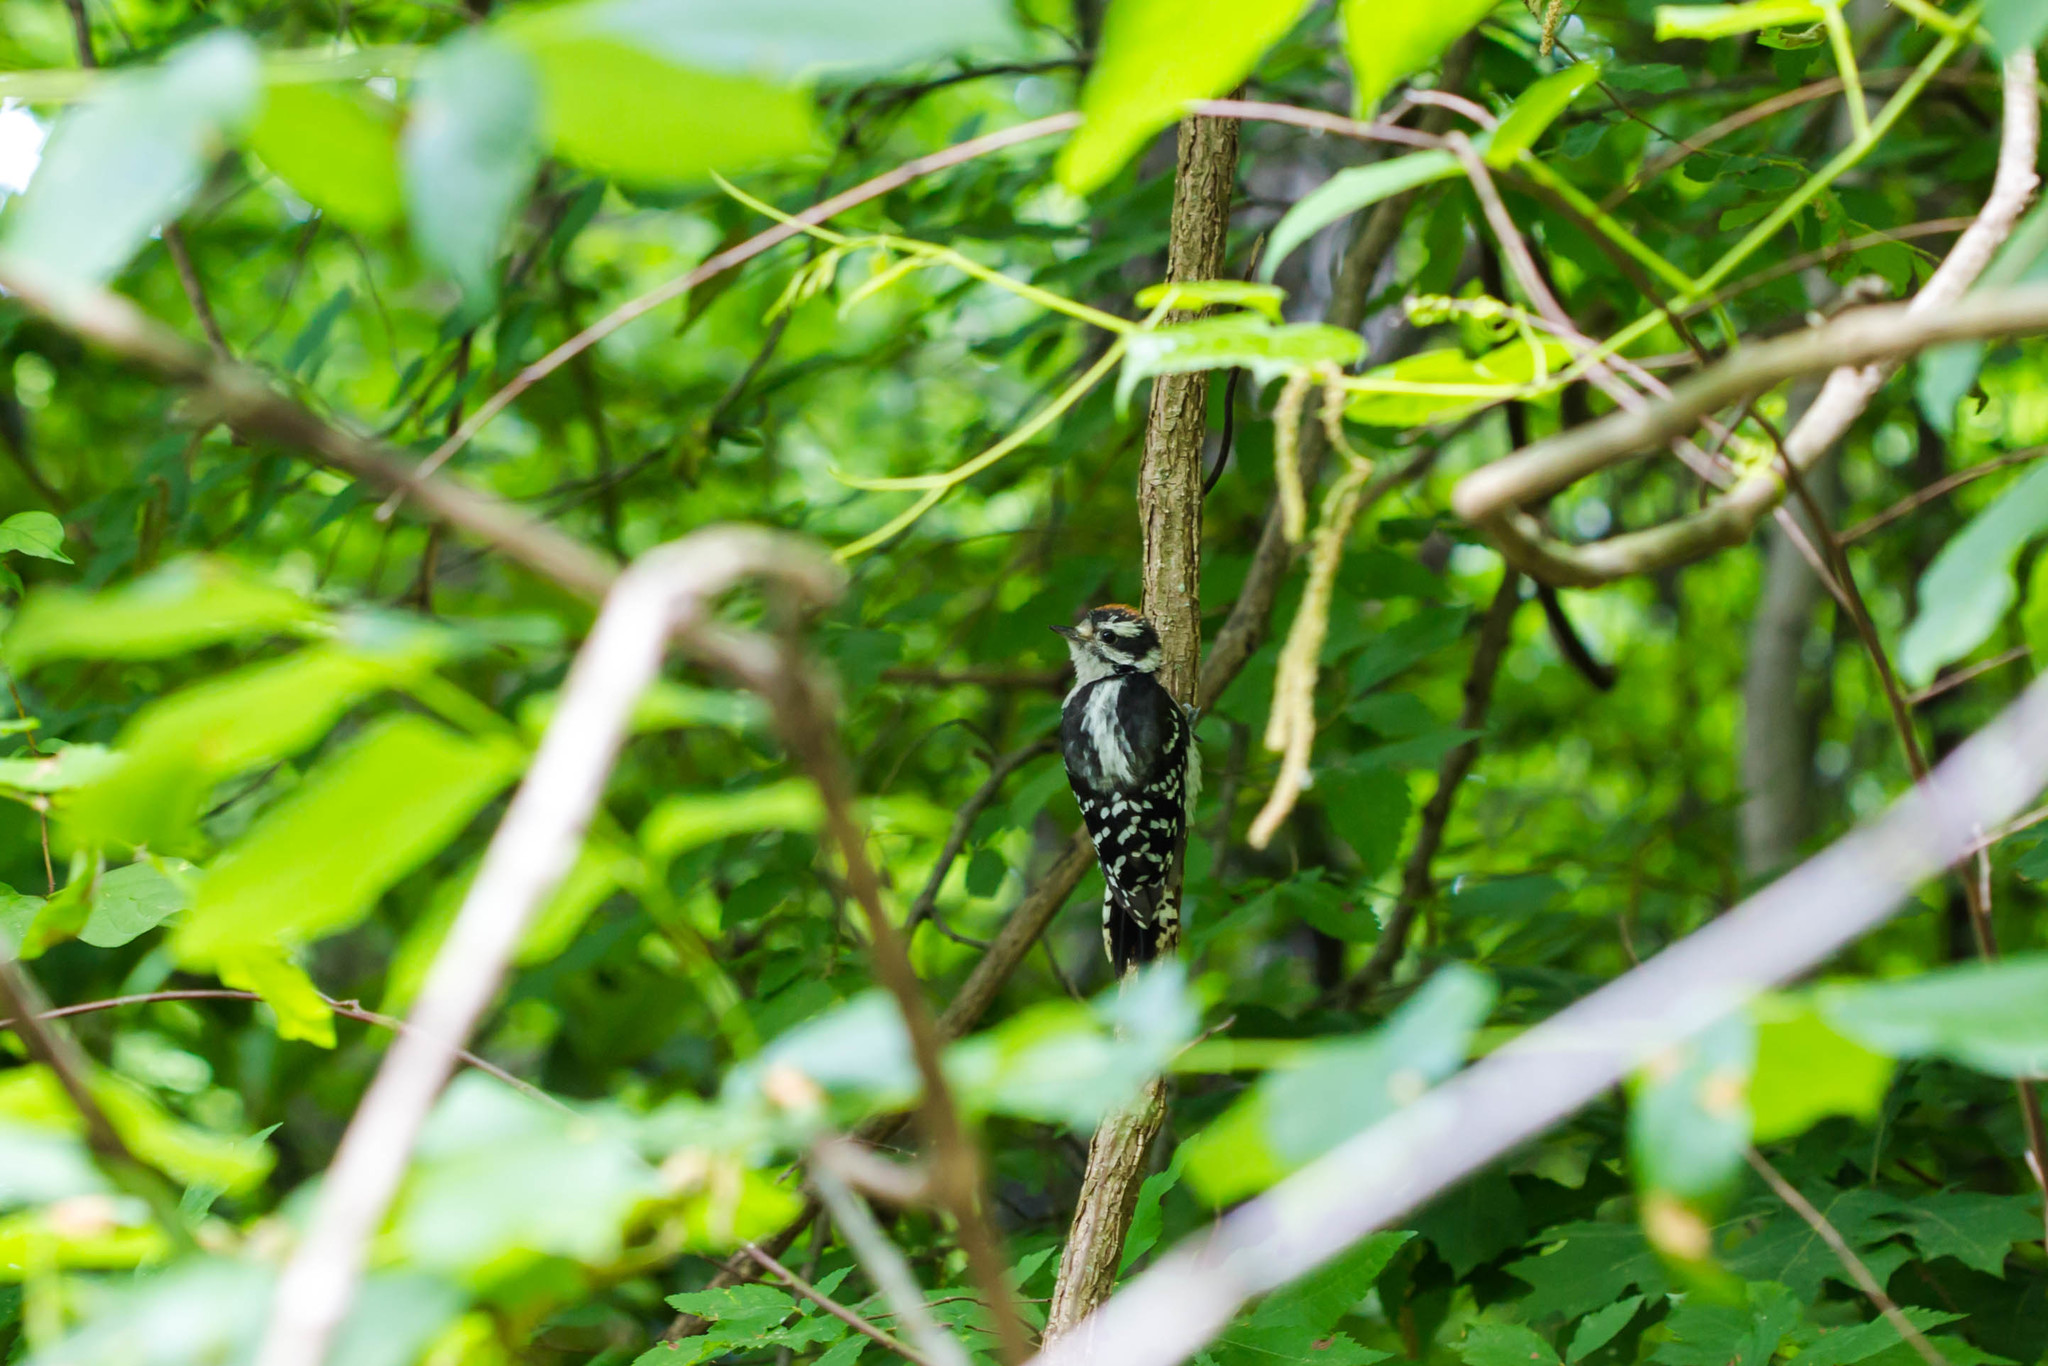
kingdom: Animalia
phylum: Chordata
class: Aves
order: Piciformes
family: Picidae
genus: Dryobates
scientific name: Dryobates pubescens
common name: Downy woodpecker
